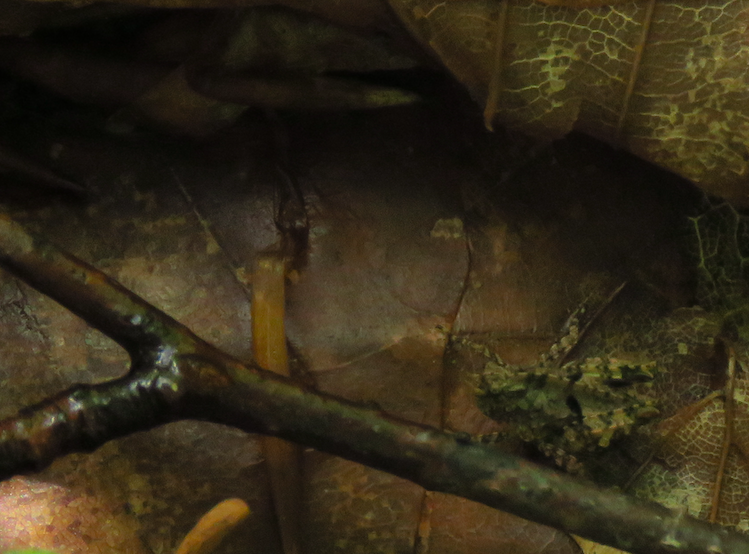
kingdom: Animalia
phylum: Arthropoda
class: Insecta
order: Orthoptera
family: Tetrigidae
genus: Tetrix
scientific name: Tetrix transsylvanica
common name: Transsylvanian wingless groundhopper
